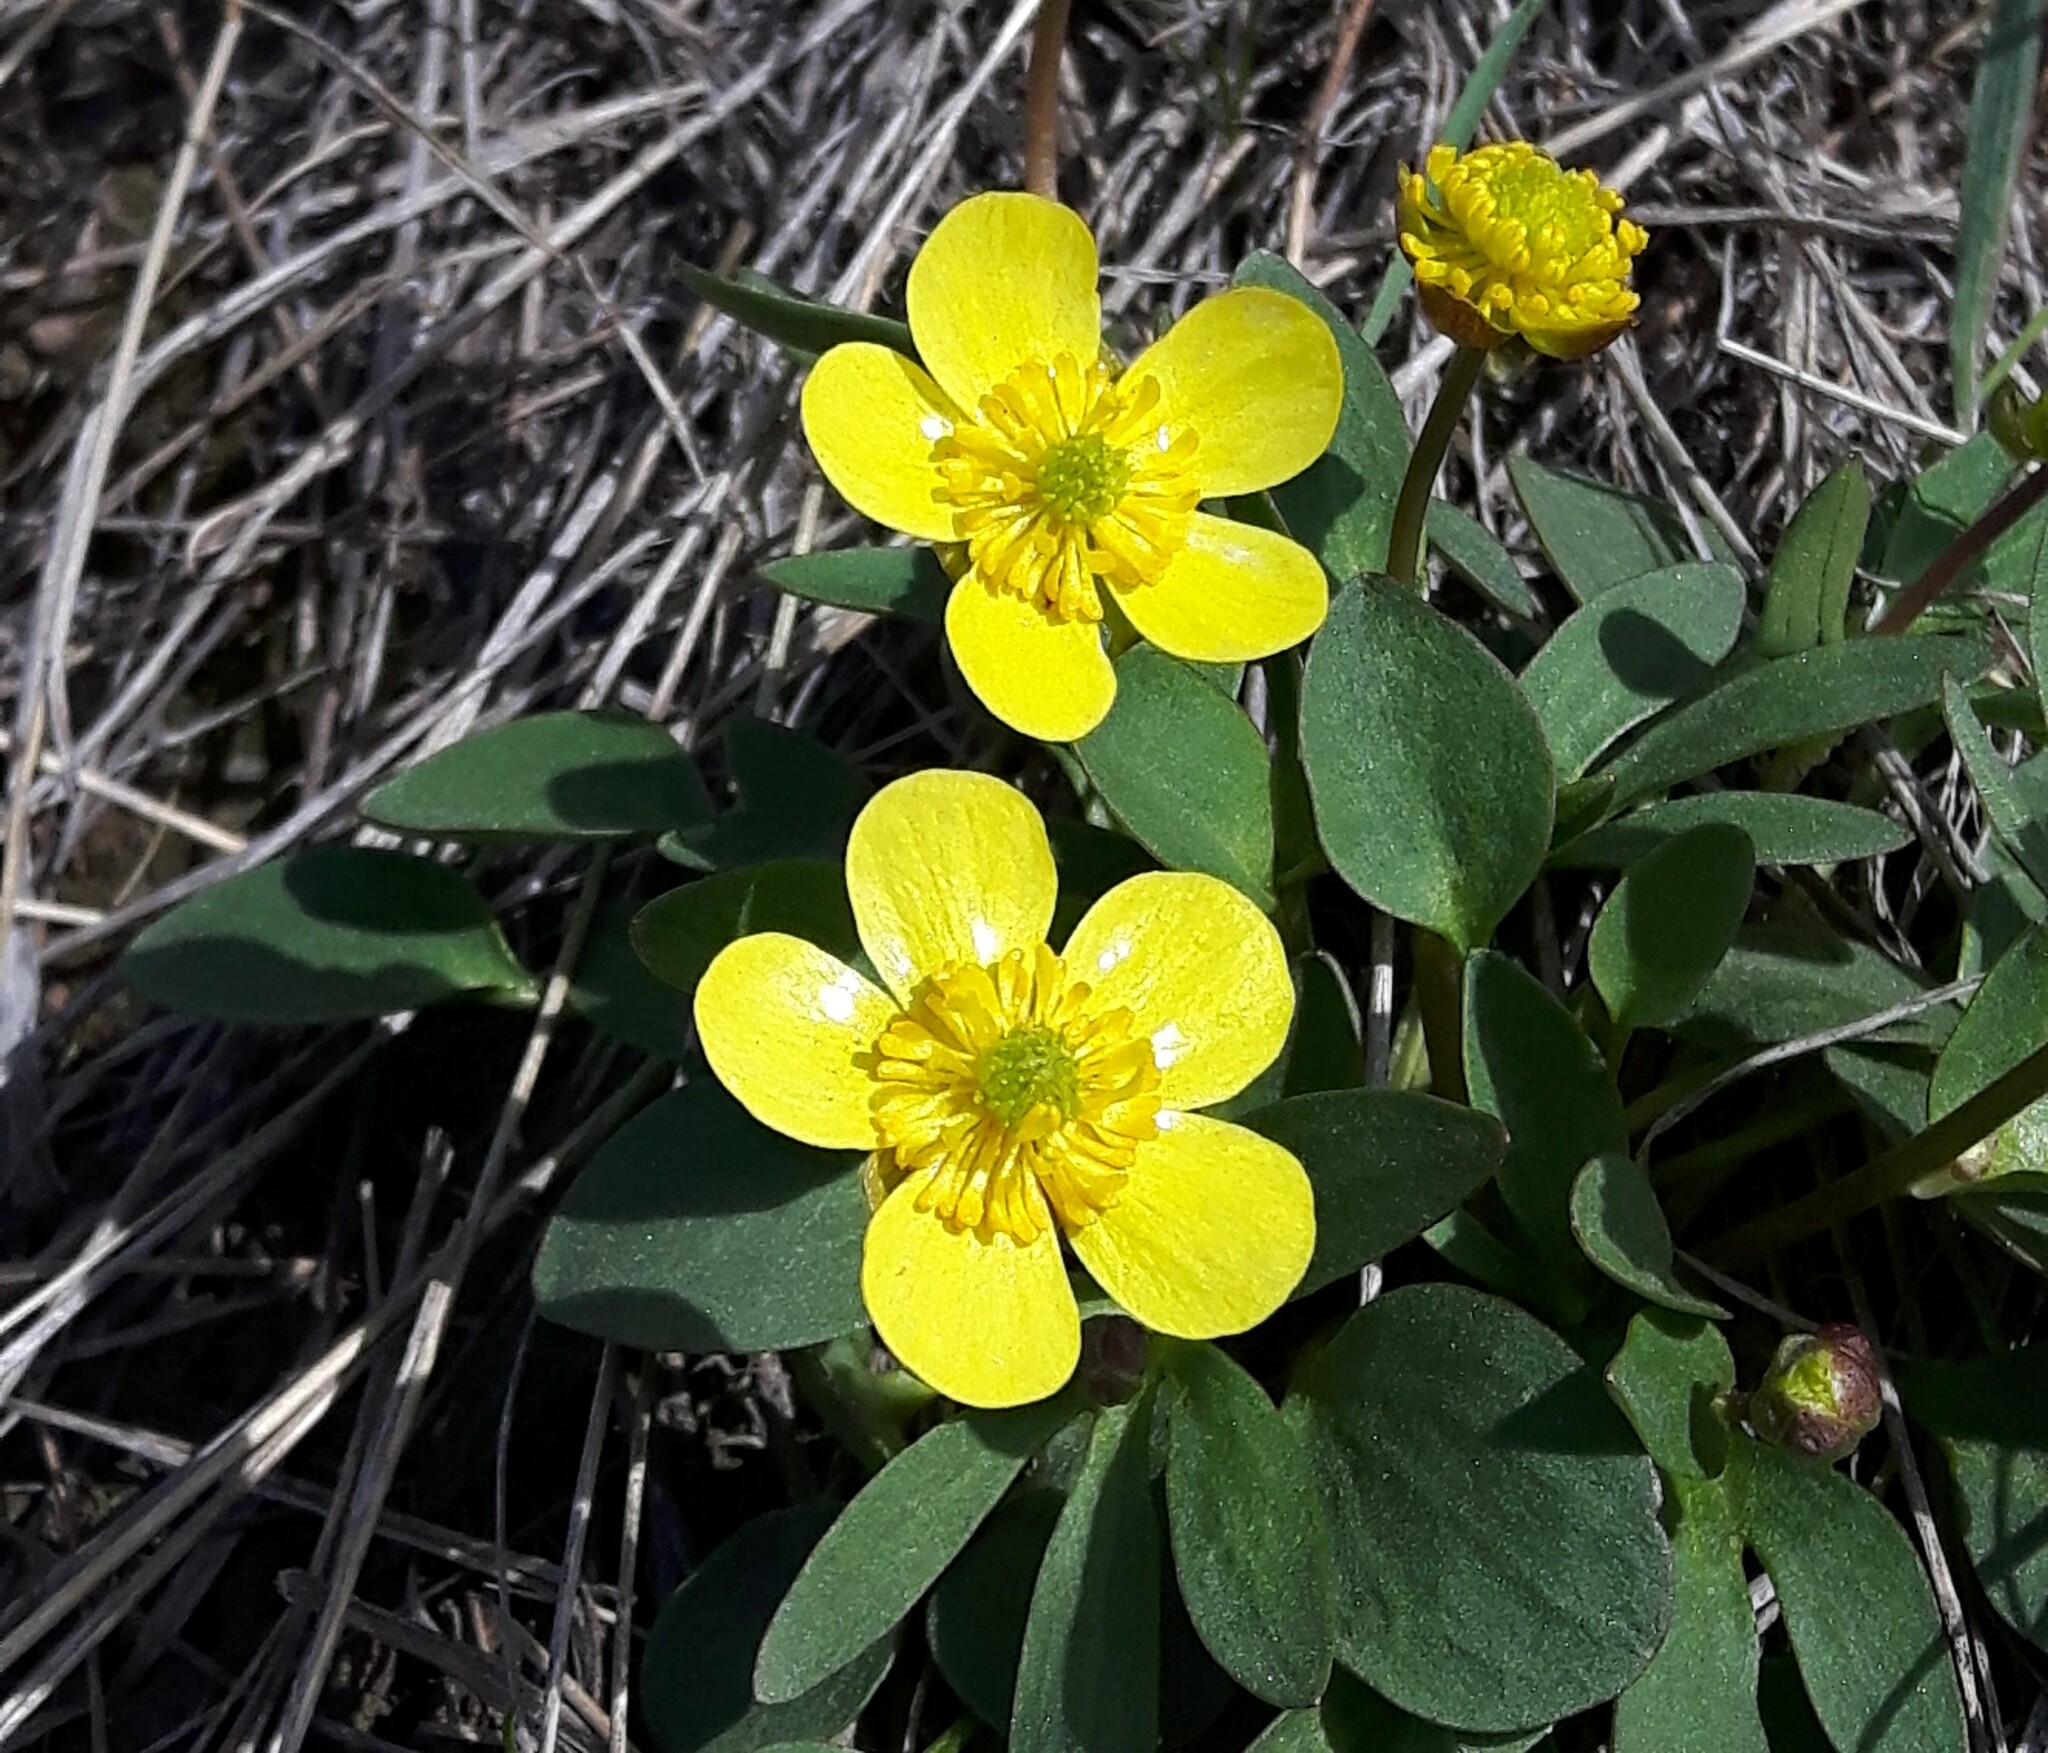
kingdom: Plantae
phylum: Tracheophyta
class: Magnoliopsida
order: Ranunculales
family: Ranunculaceae
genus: Ranunculus
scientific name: Ranunculus glaberrimus
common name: Sagebrush buttercup
